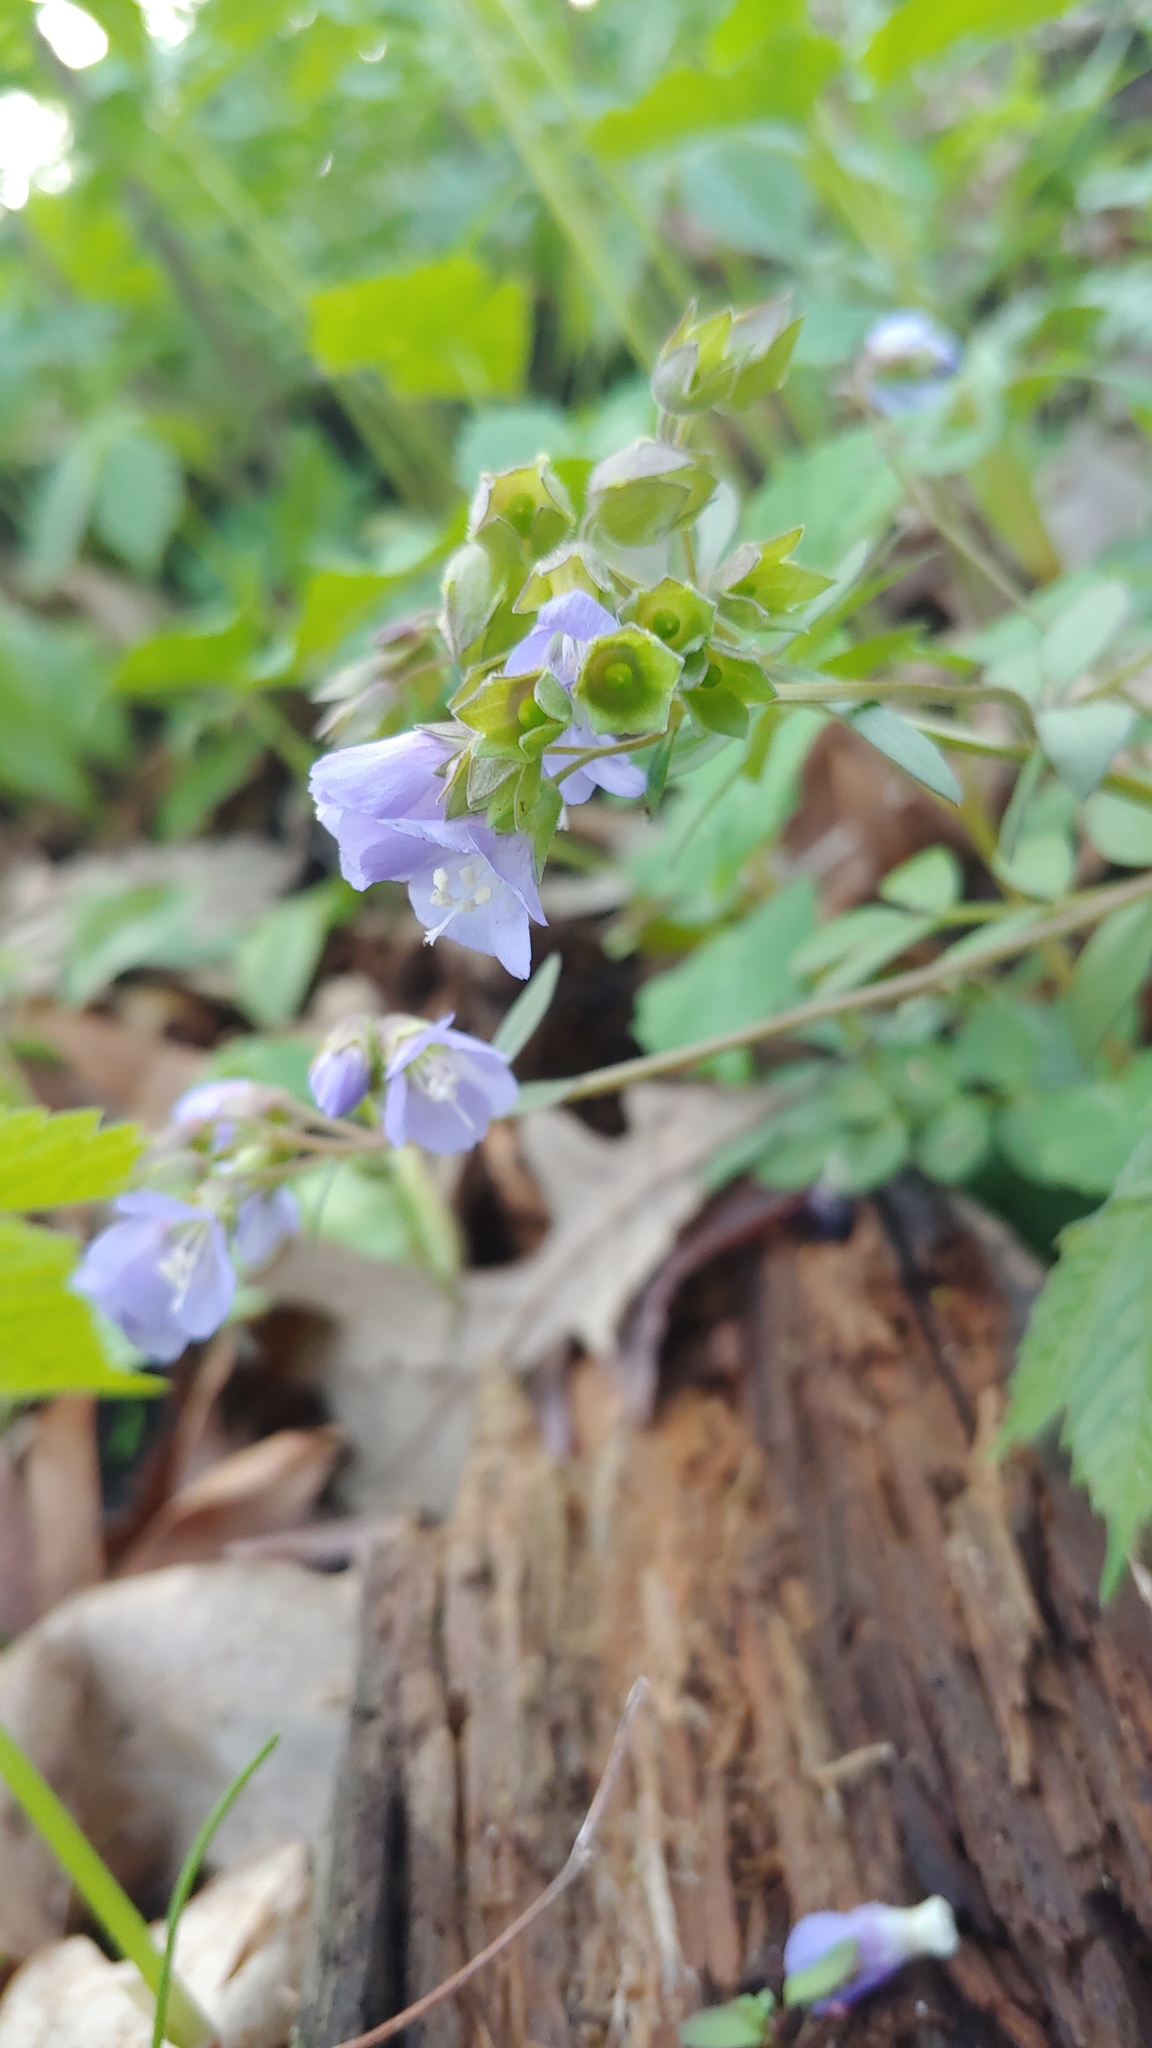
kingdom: Plantae
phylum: Tracheophyta
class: Magnoliopsida
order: Ericales
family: Polemoniaceae
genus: Polemonium
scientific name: Polemonium reptans
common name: Creeping jacob's-ladder
